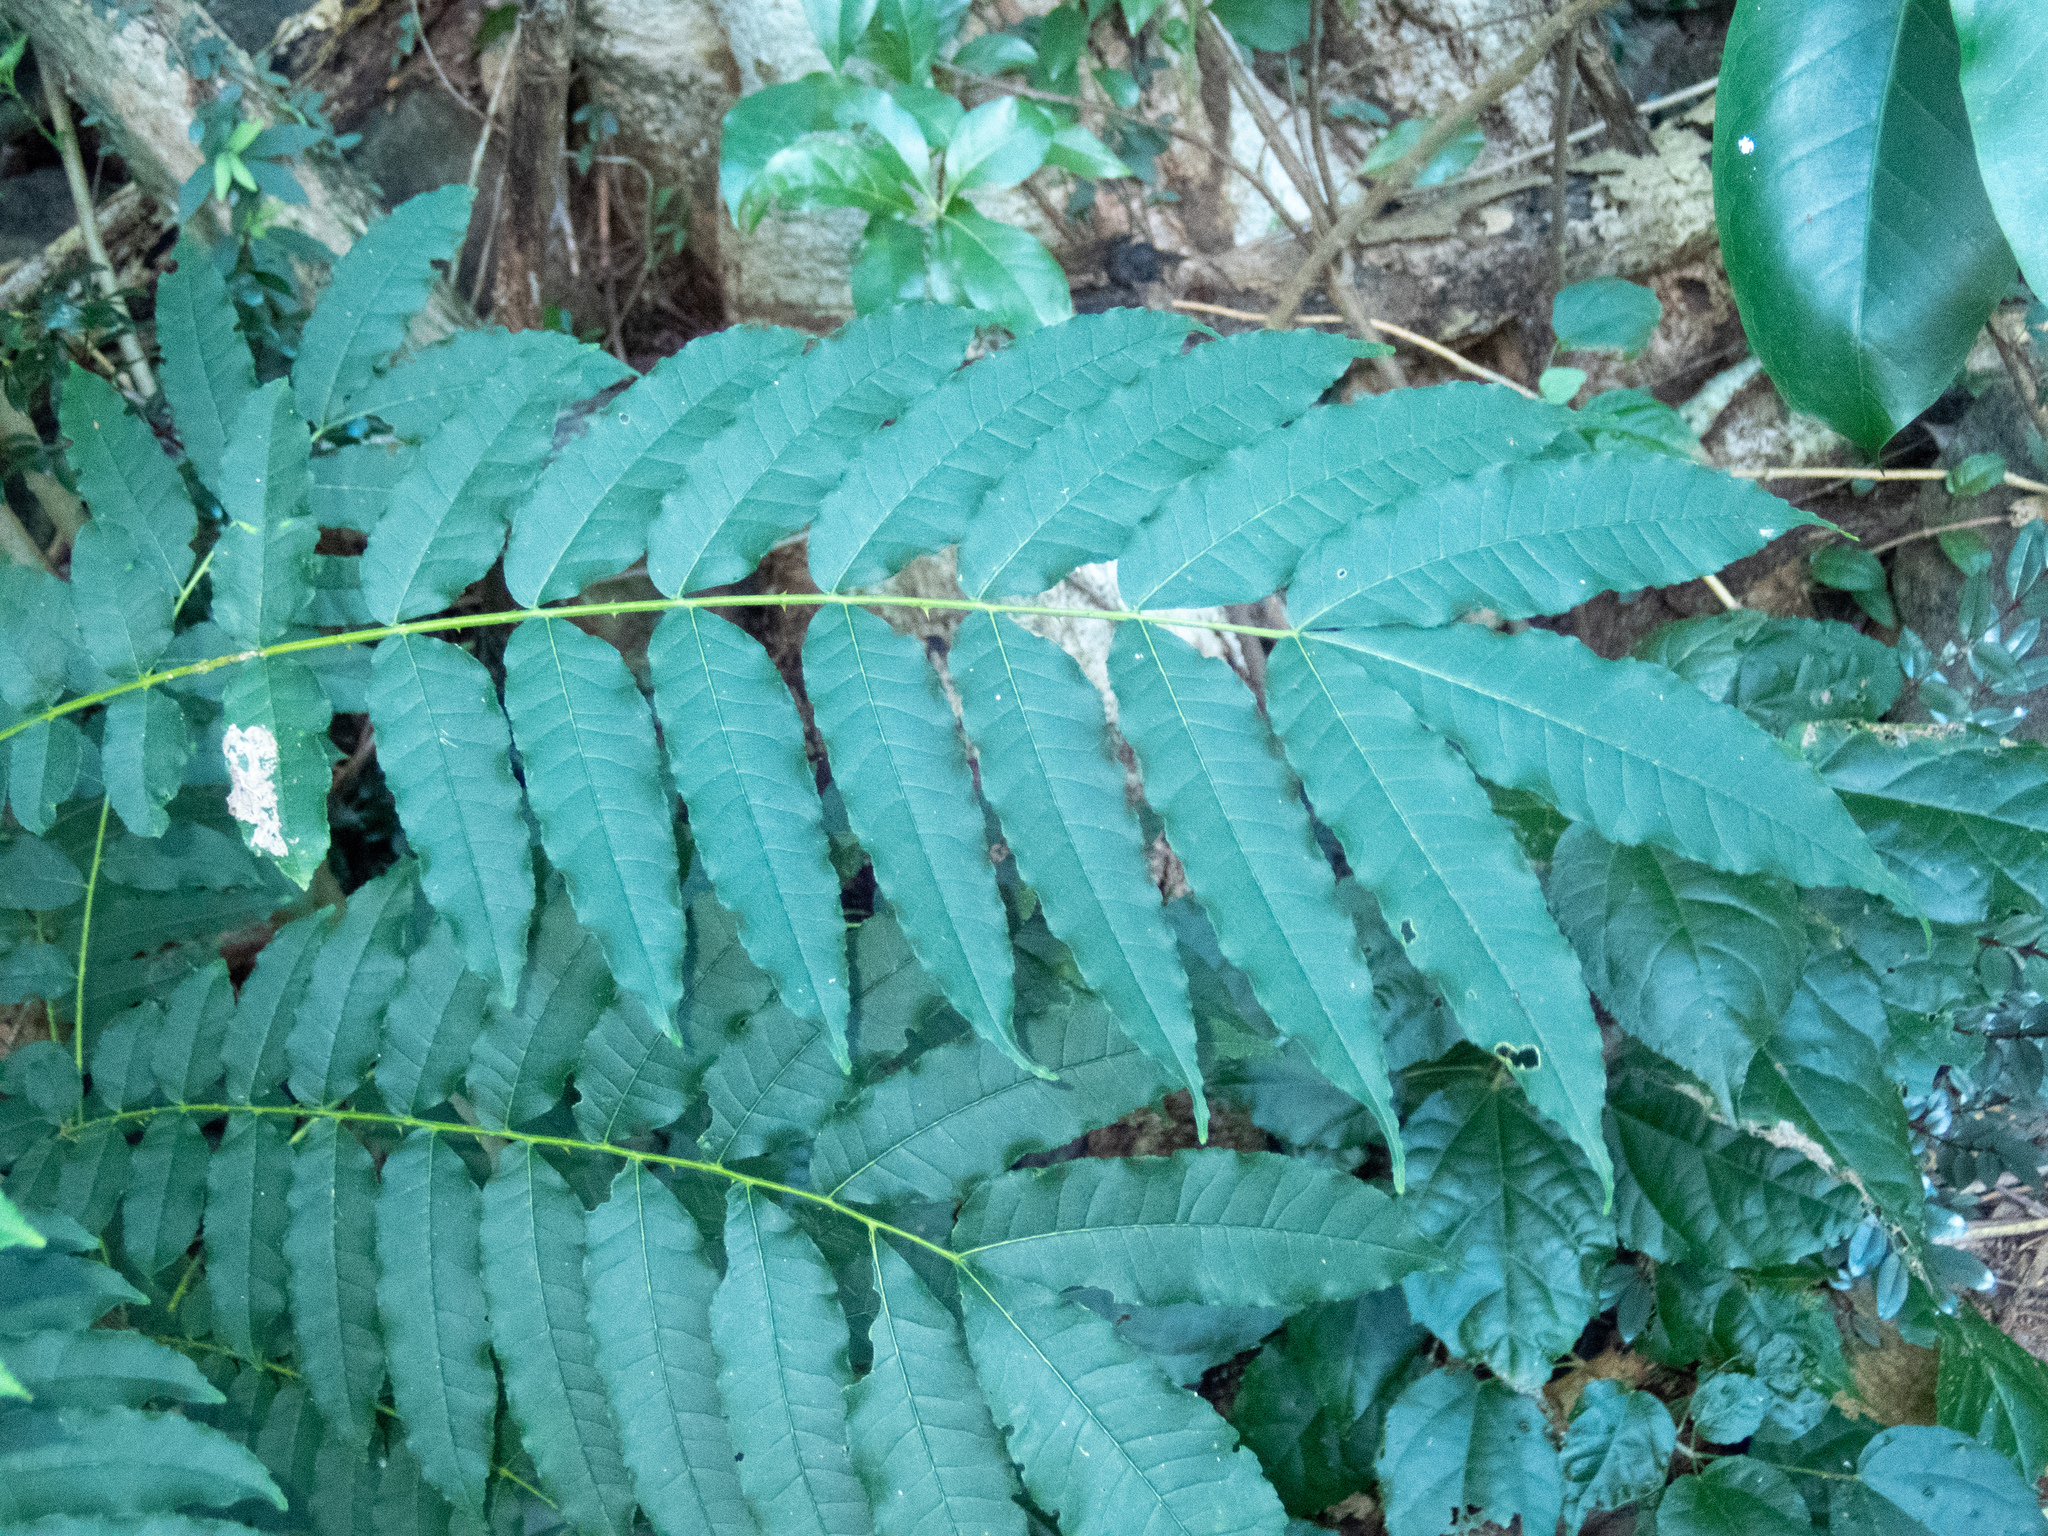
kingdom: Plantae
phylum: Tracheophyta
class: Magnoliopsida
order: Sapindales
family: Rutaceae
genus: Zanthoxylum
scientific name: Zanthoxylum caribaeum
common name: Prickly yellow
